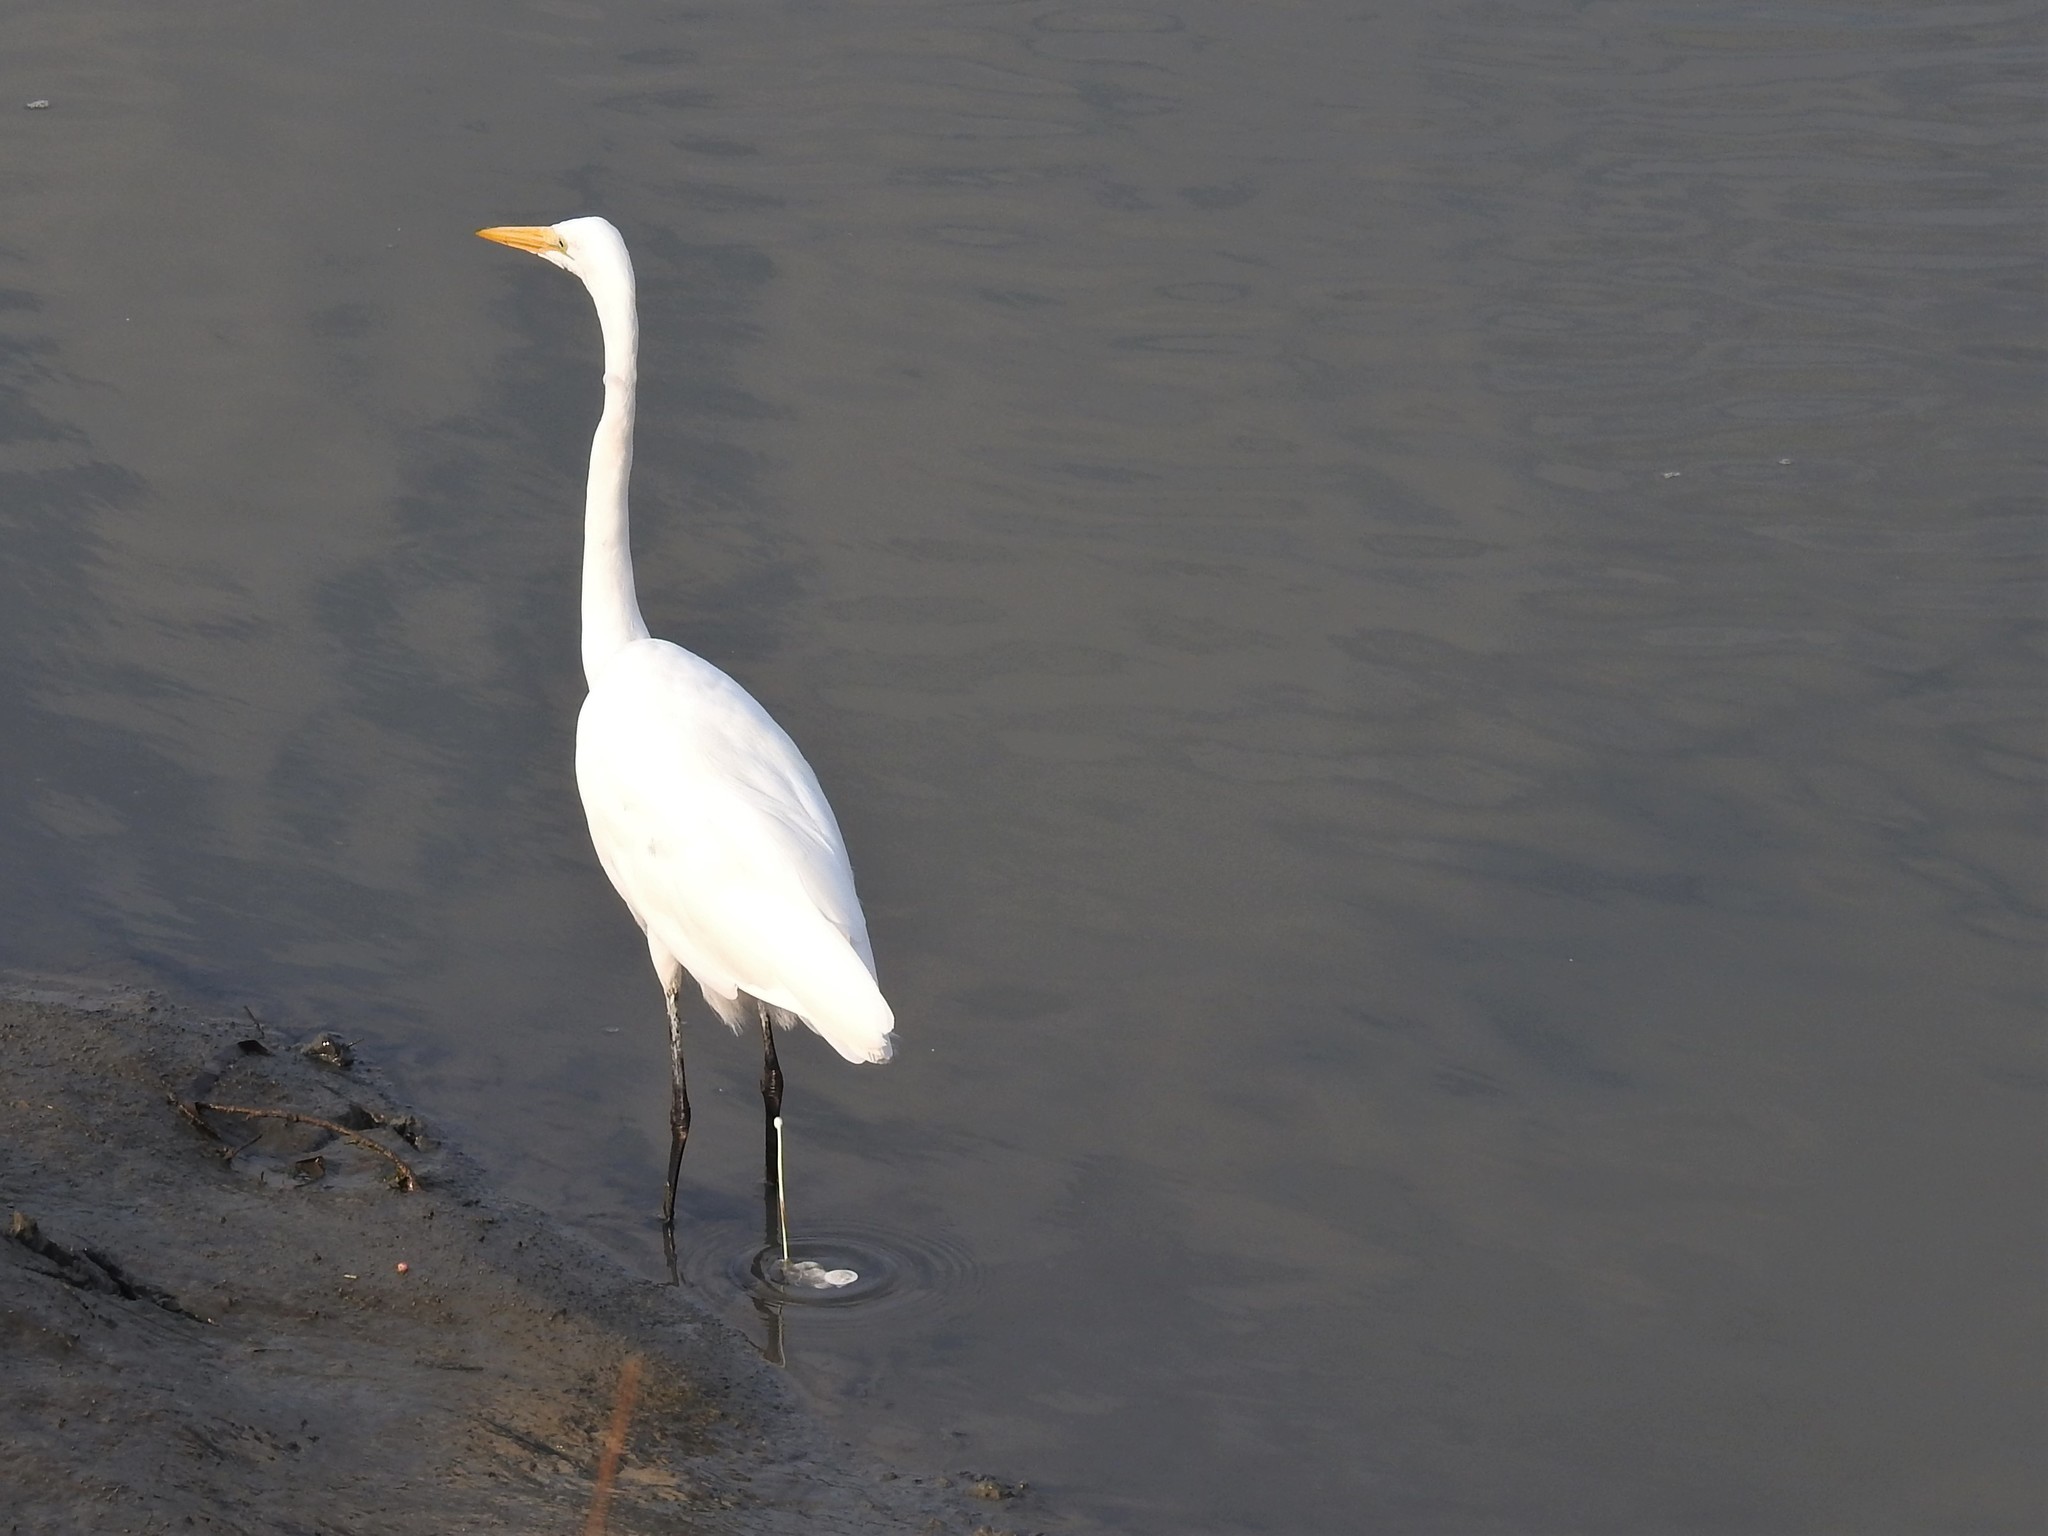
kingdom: Animalia
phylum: Chordata
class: Aves
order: Pelecaniformes
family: Ardeidae
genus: Ardea
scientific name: Ardea alba
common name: Great egret
